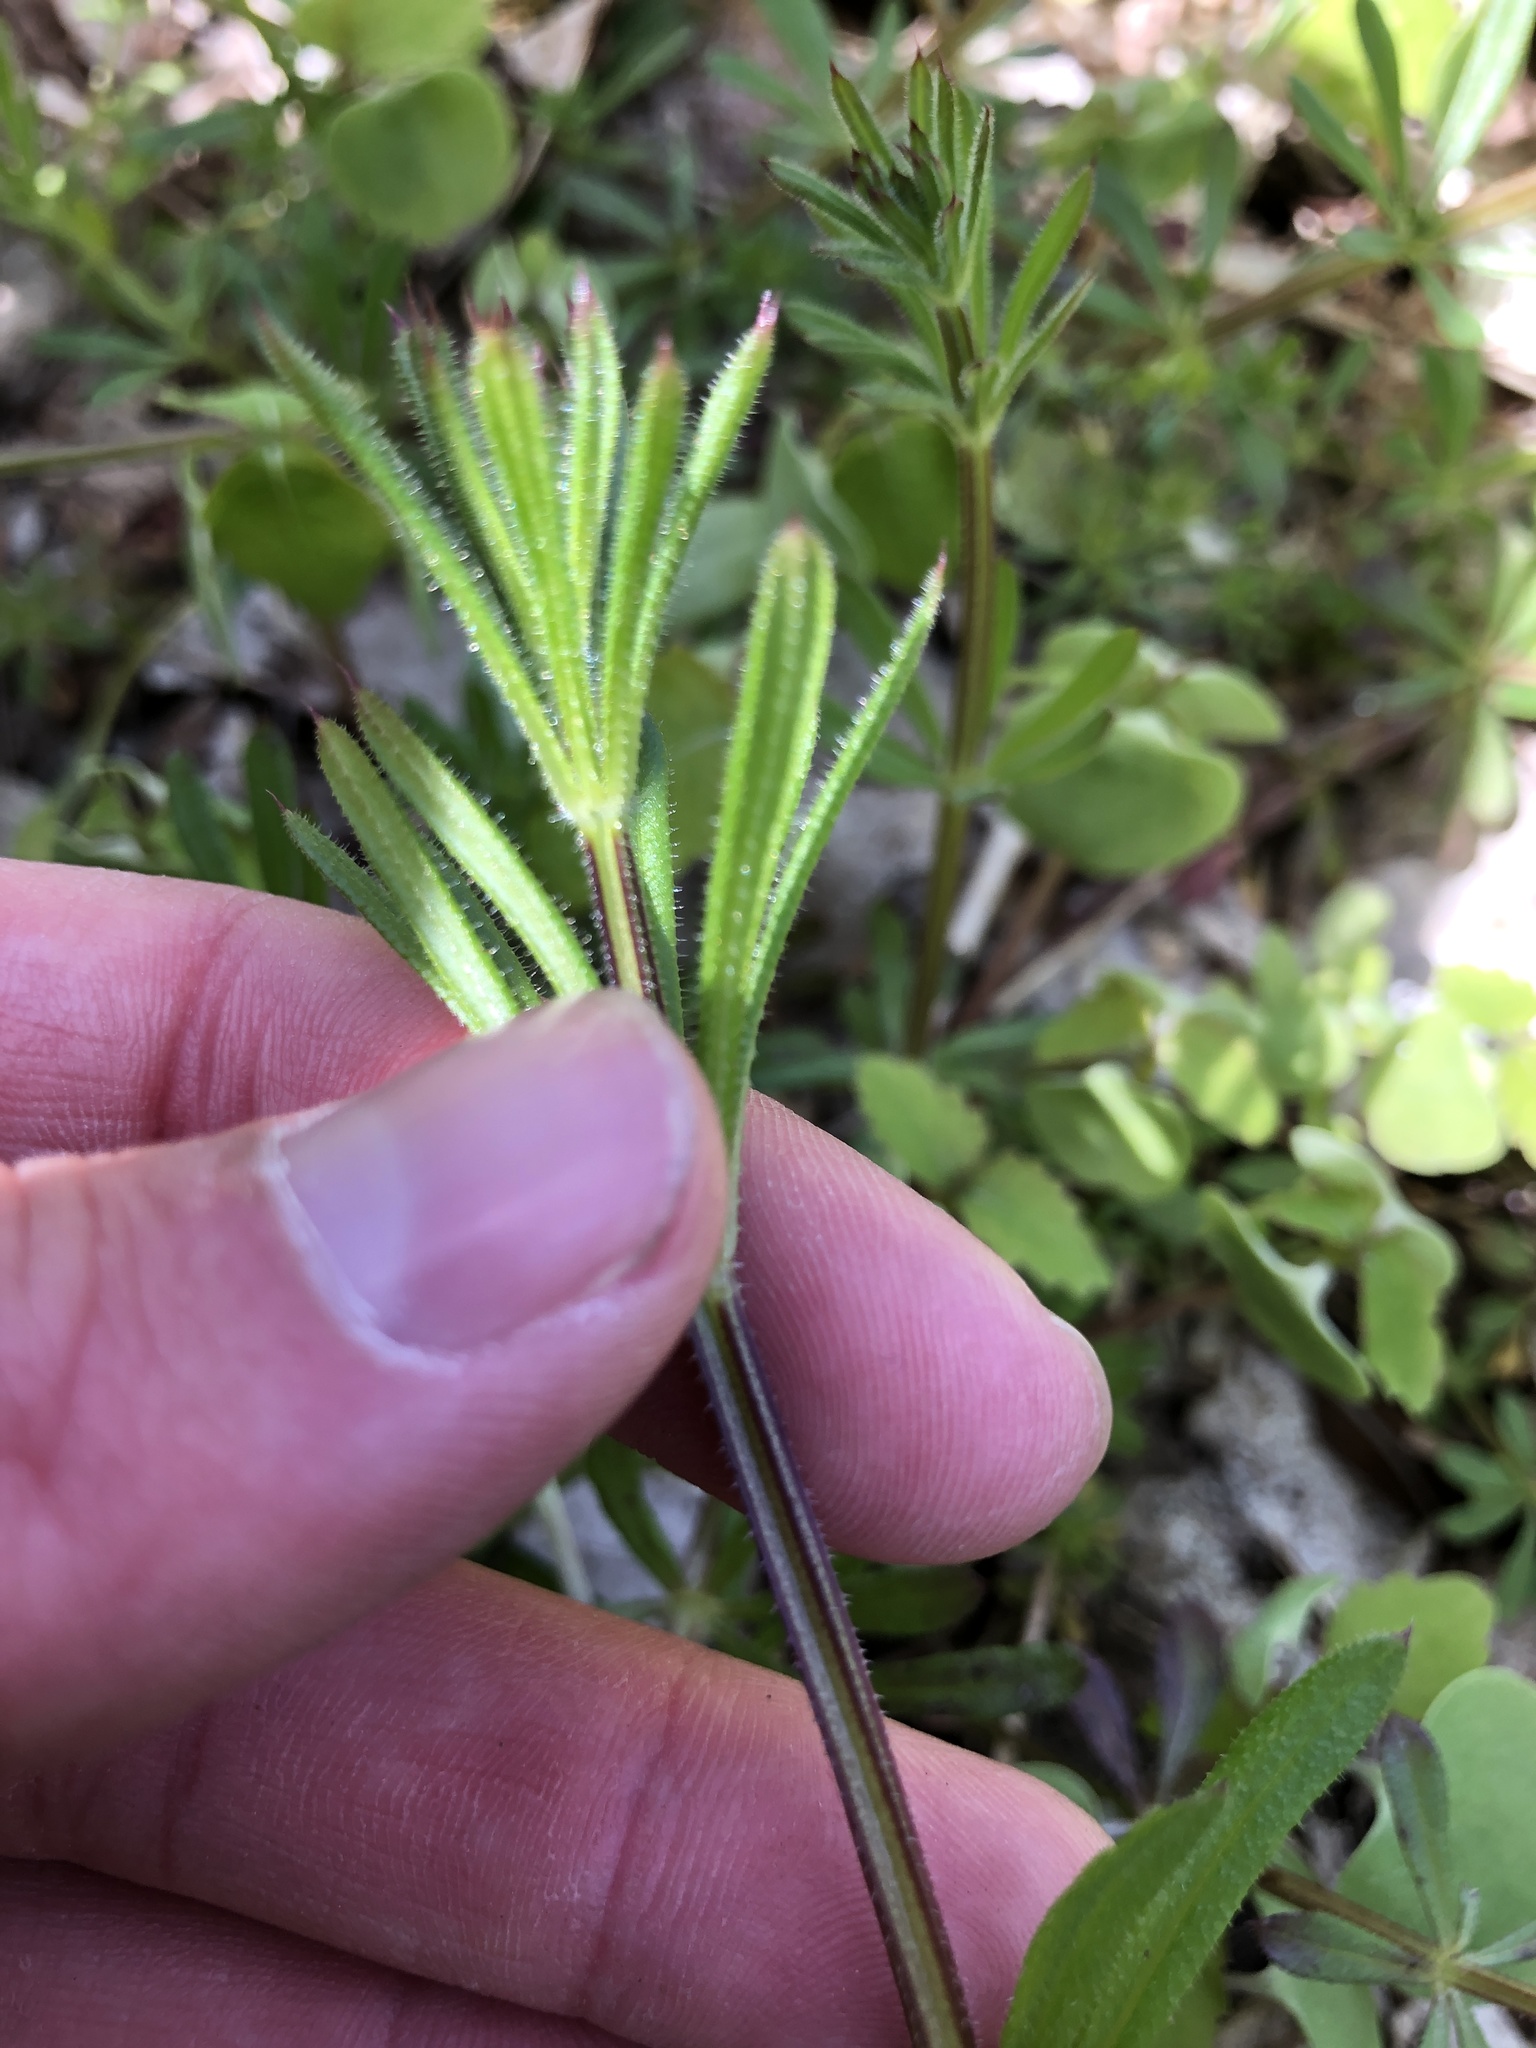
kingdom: Plantae
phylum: Tracheophyta
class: Magnoliopsida
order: Gentianales
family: Rubiaceae
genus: Galium
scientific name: Galium aparine
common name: Cleavers
